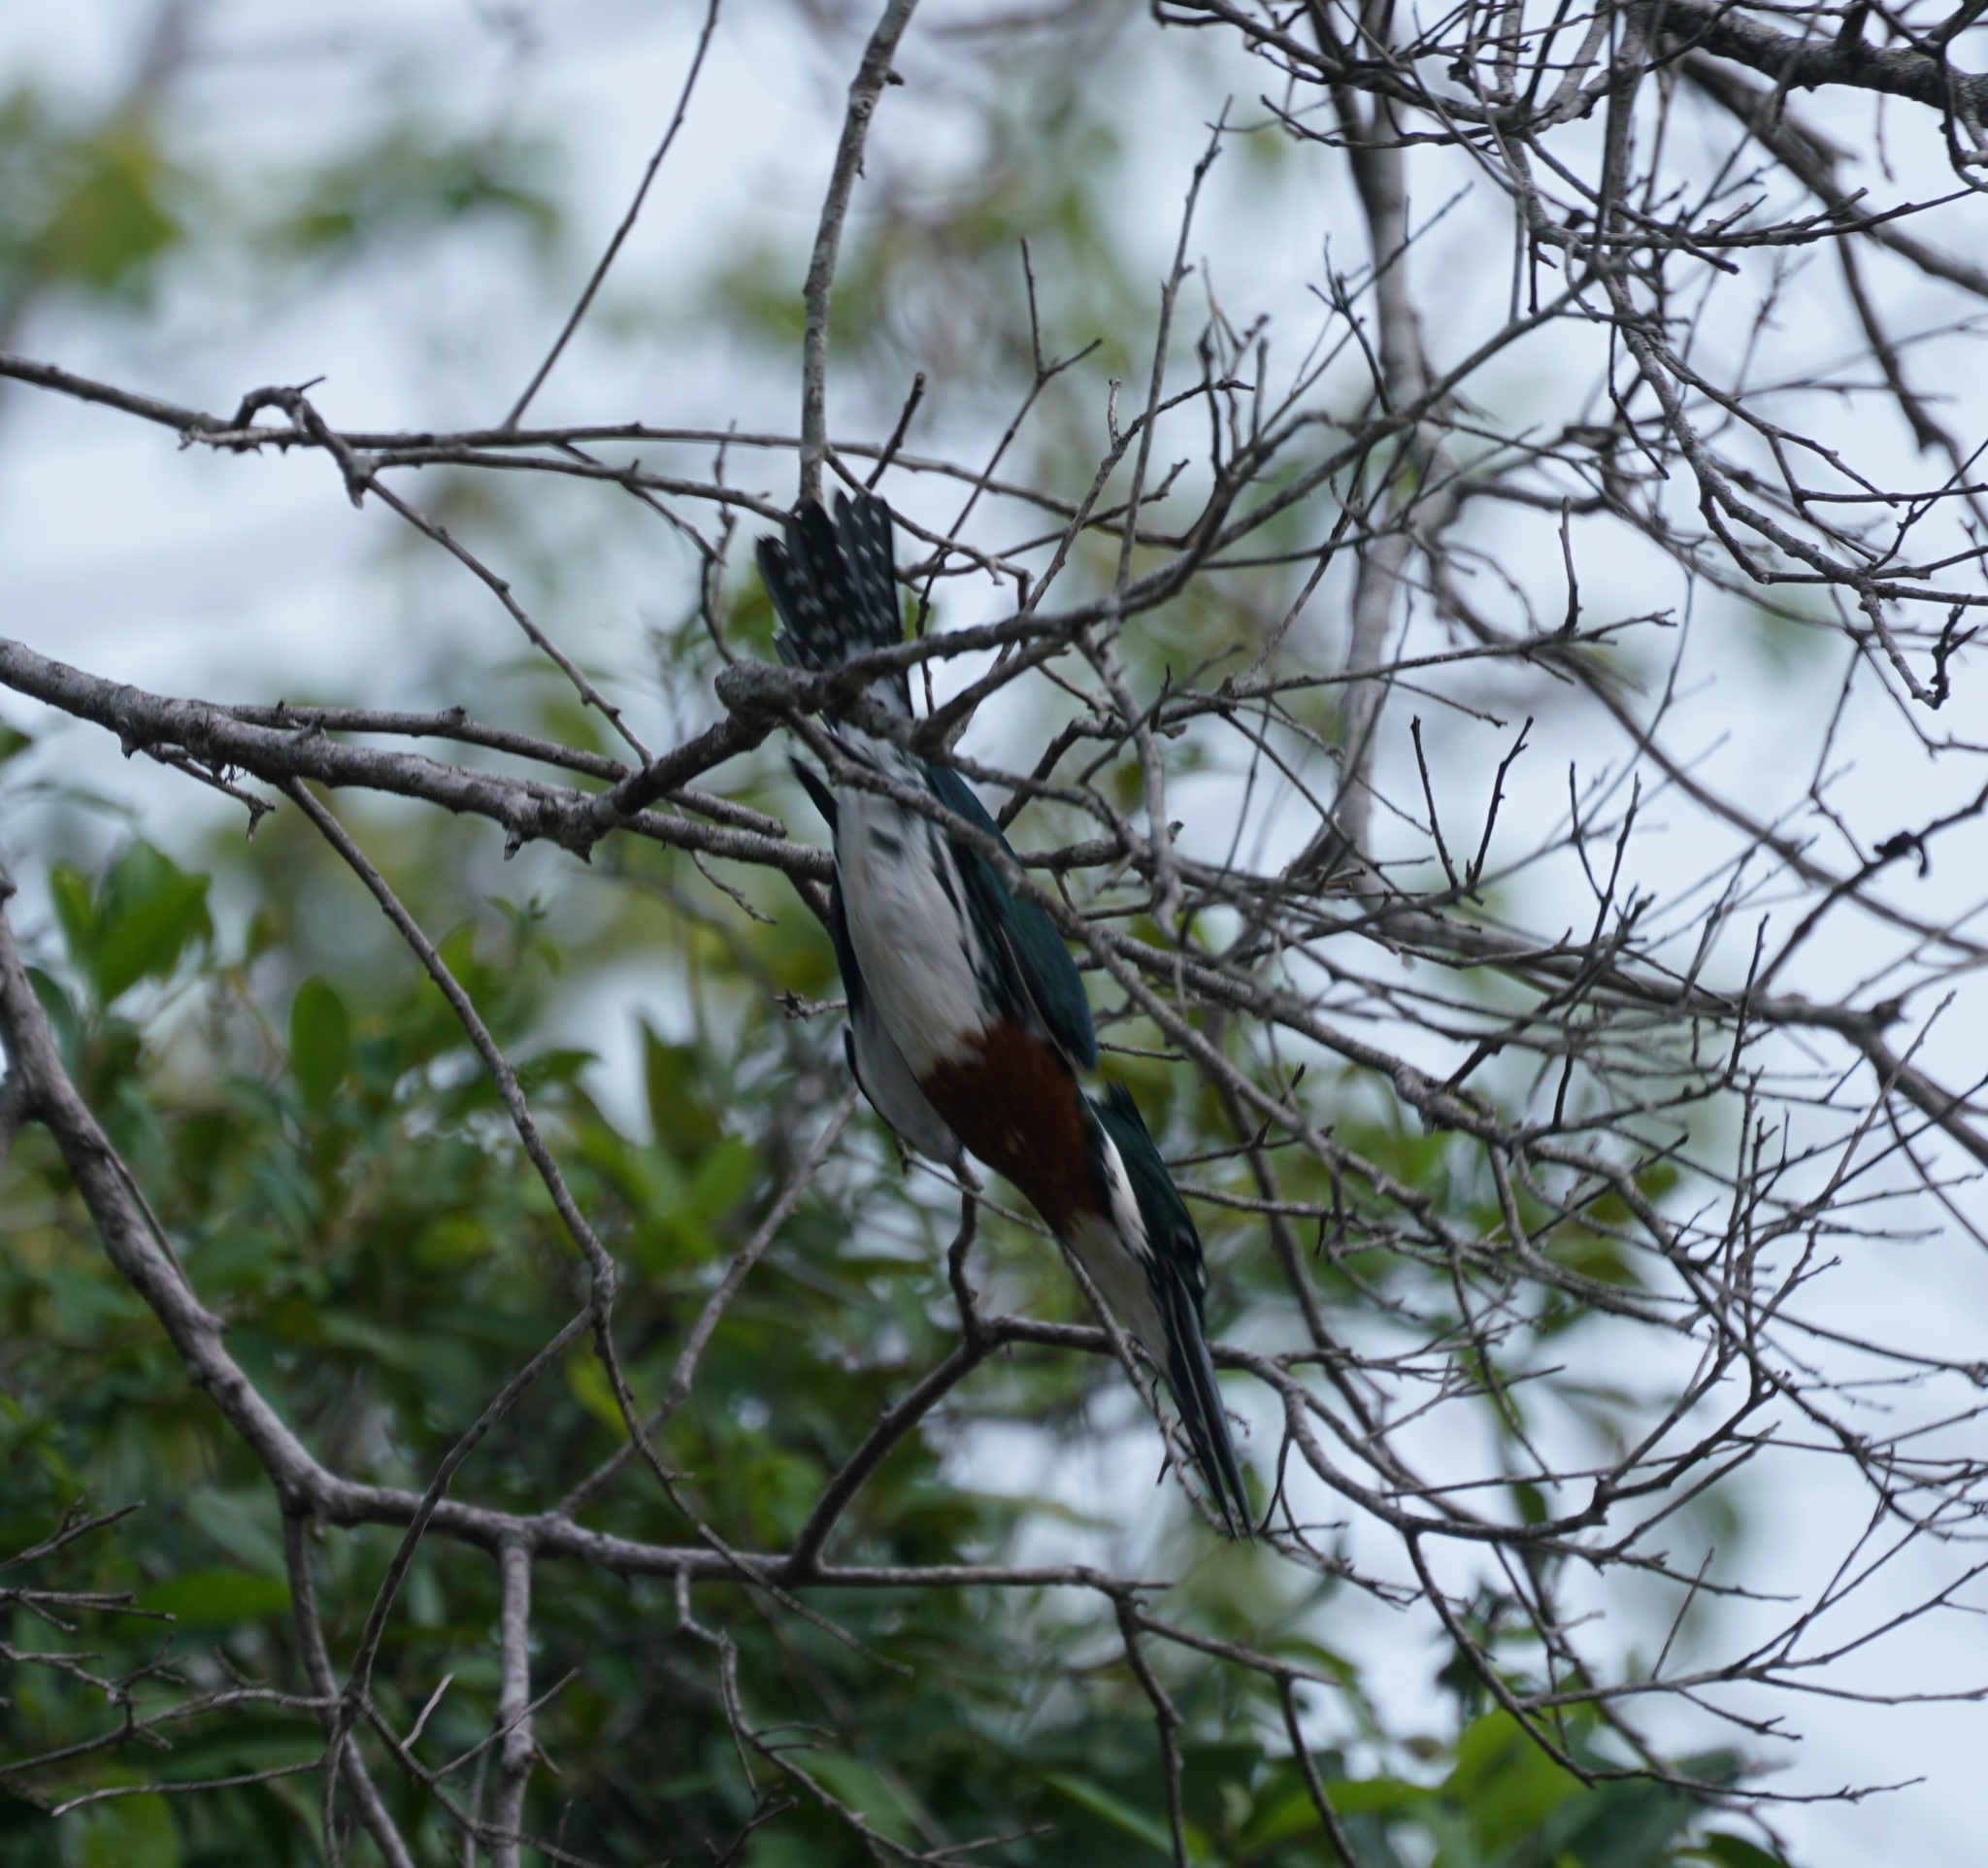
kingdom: Animalia
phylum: Chordata
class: Aves
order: Coraciiformes
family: Alcedinidae
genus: Chloroceryle
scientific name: Chloroceryle amazona
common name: Amazon kingfisher
